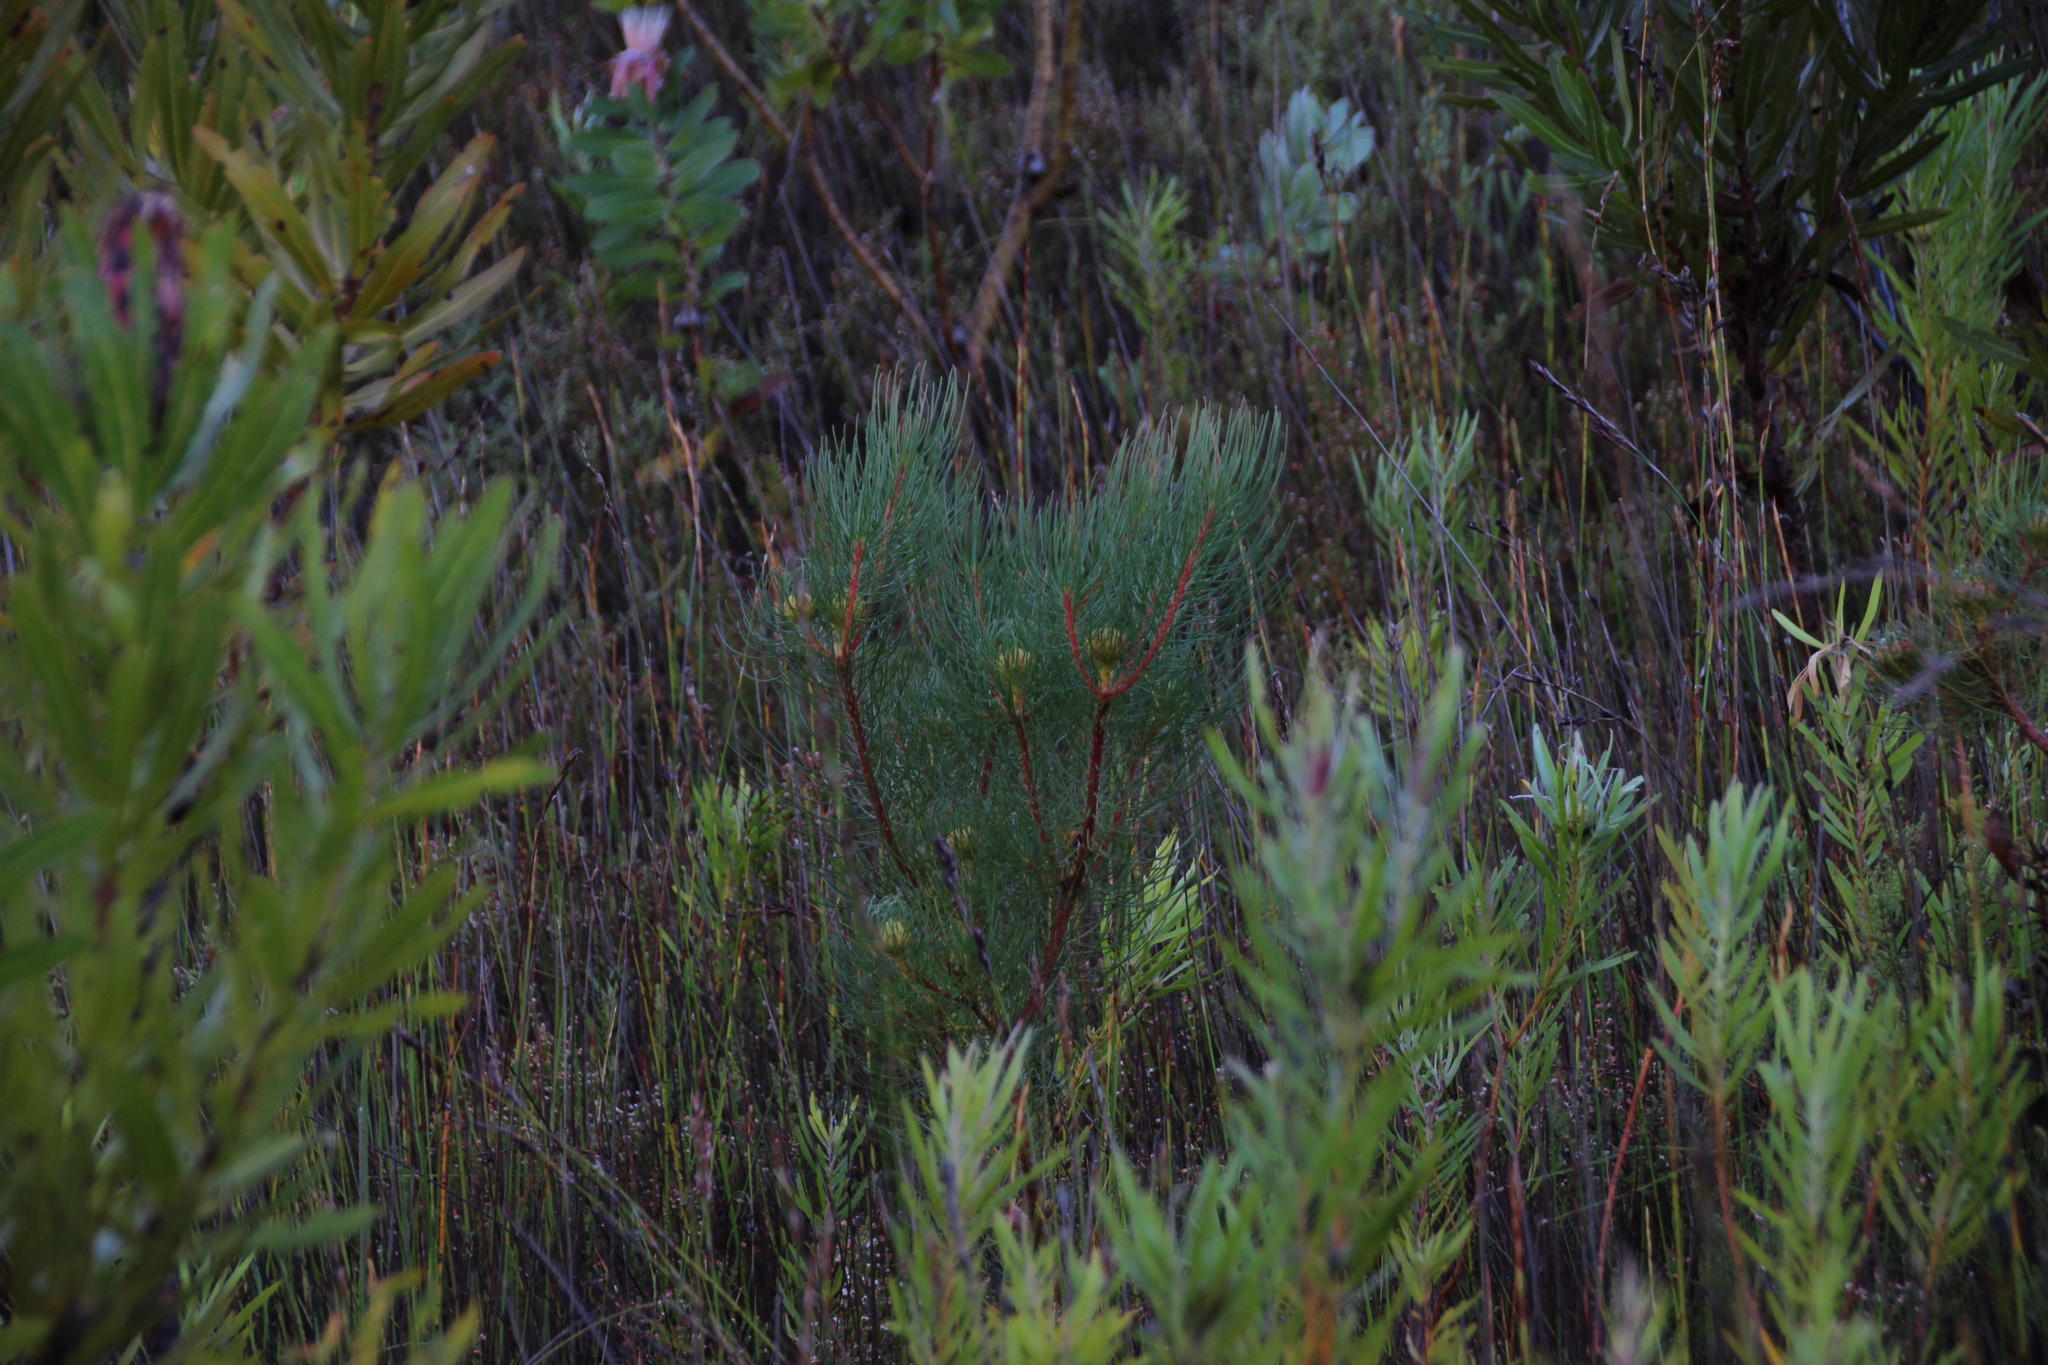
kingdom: Plantae
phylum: Tracheophyta
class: Magnoliopsida
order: Proteales
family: Proteaceae
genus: Aulax
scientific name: Aulax cancellata
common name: Channel-leaf featherbush
